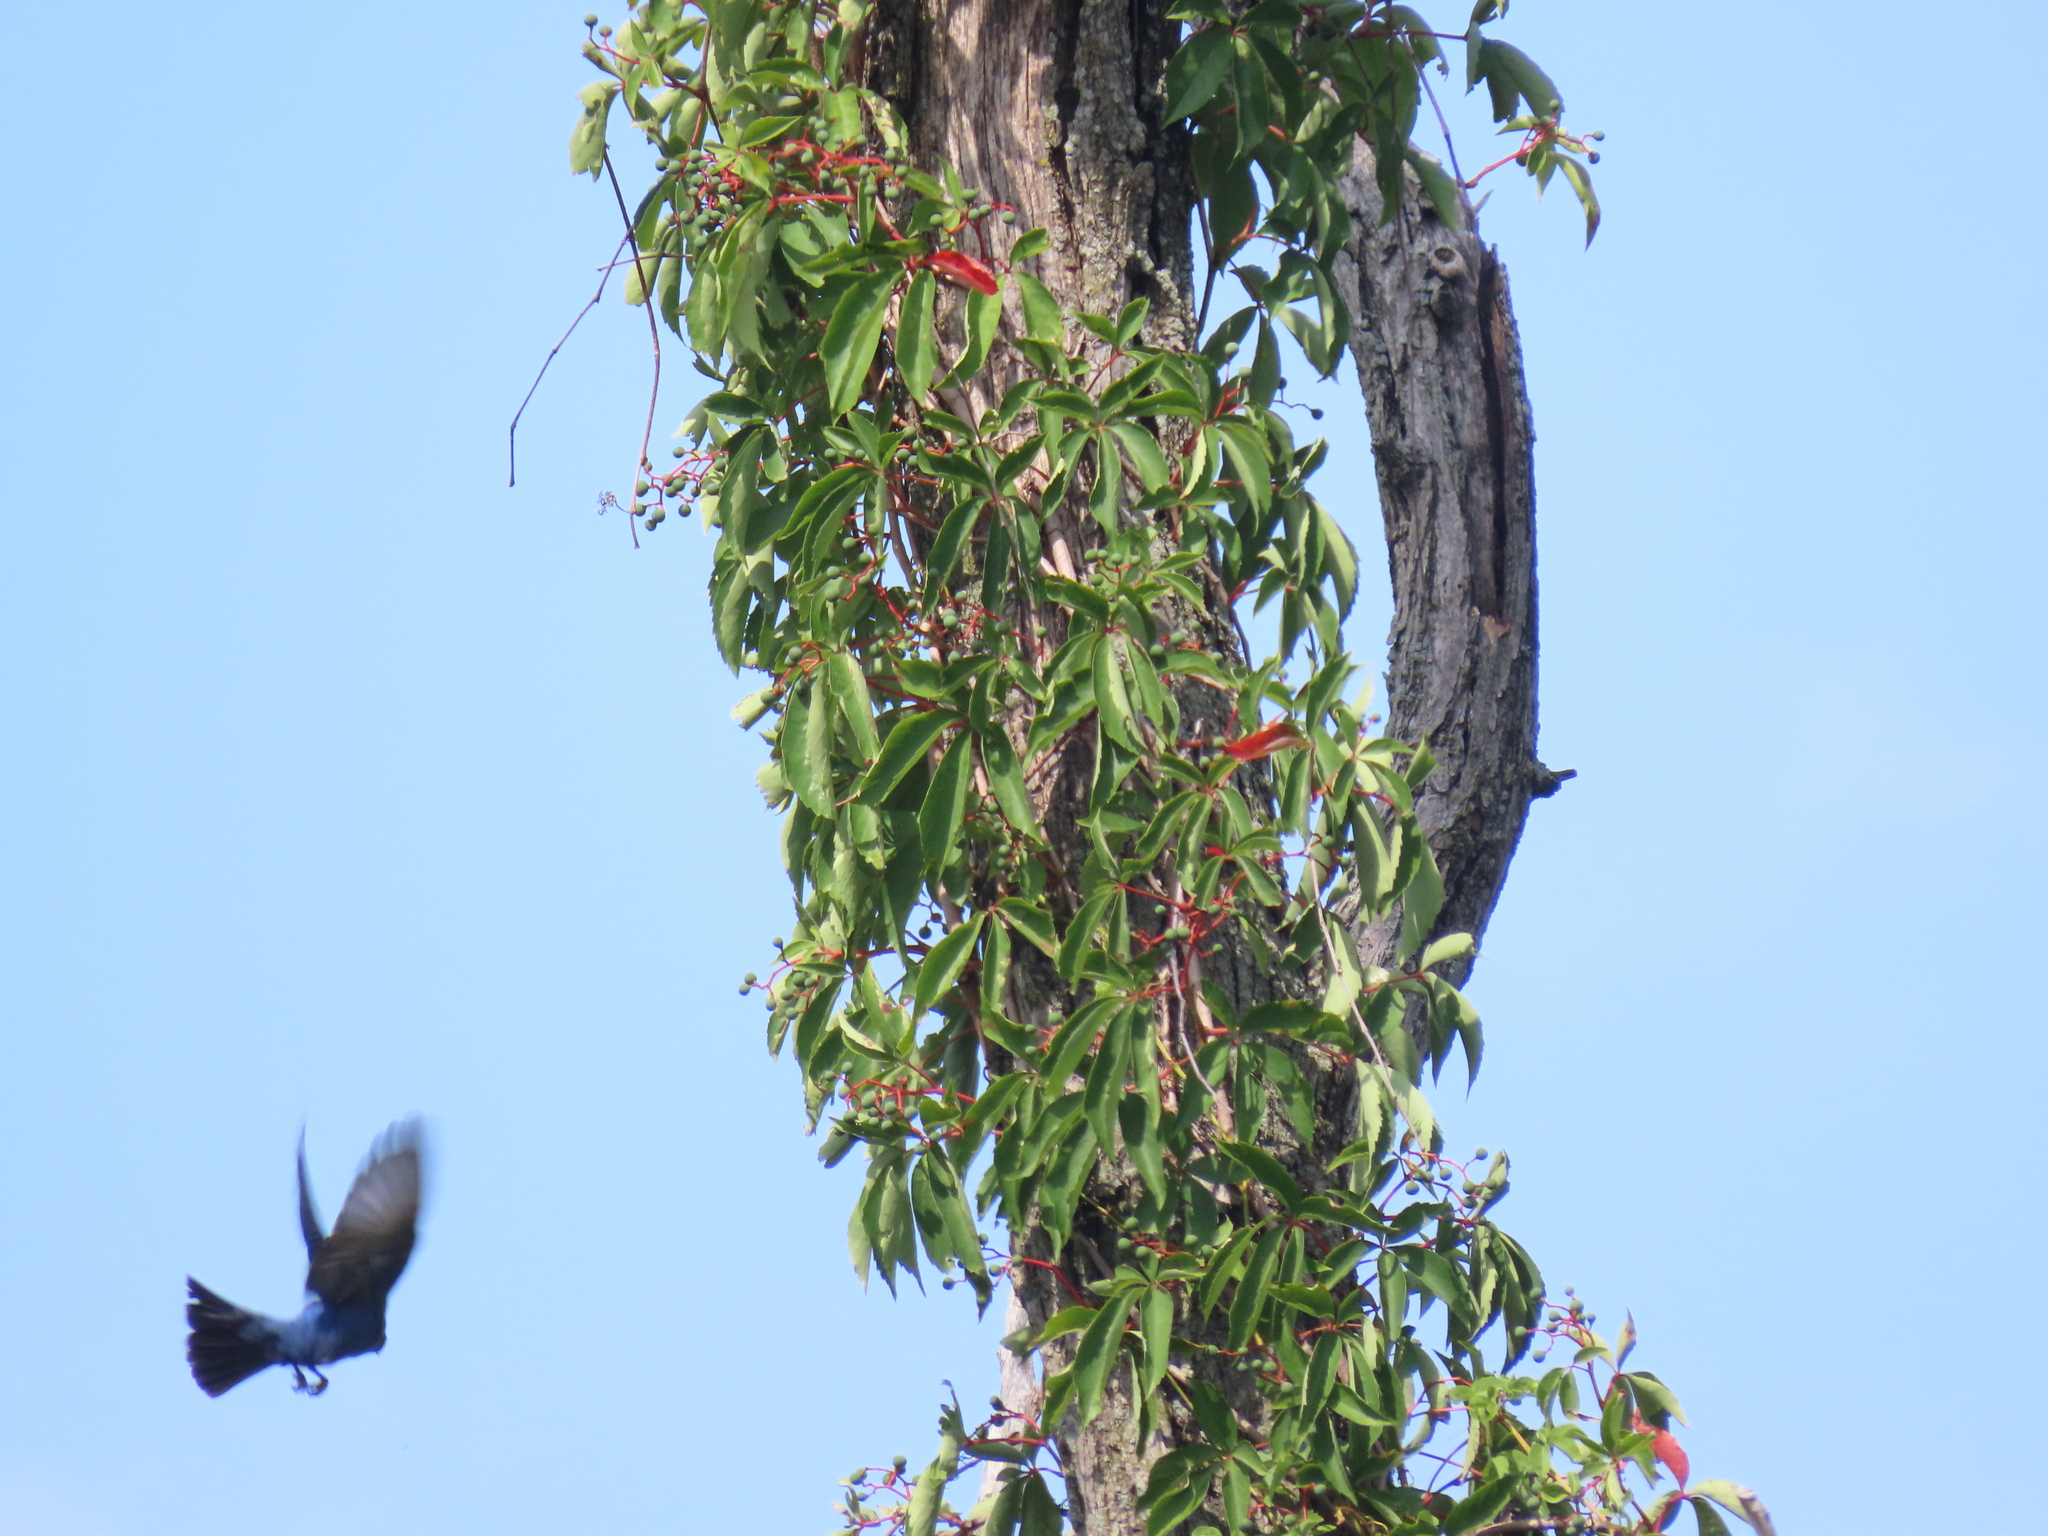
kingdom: Plantae
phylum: Tracheophyta
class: Magnoliopsida
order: Vitales
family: Vitaceae
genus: Parthenocissus
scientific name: Parthenocissus quinquefolia
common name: Virginia-creeper
